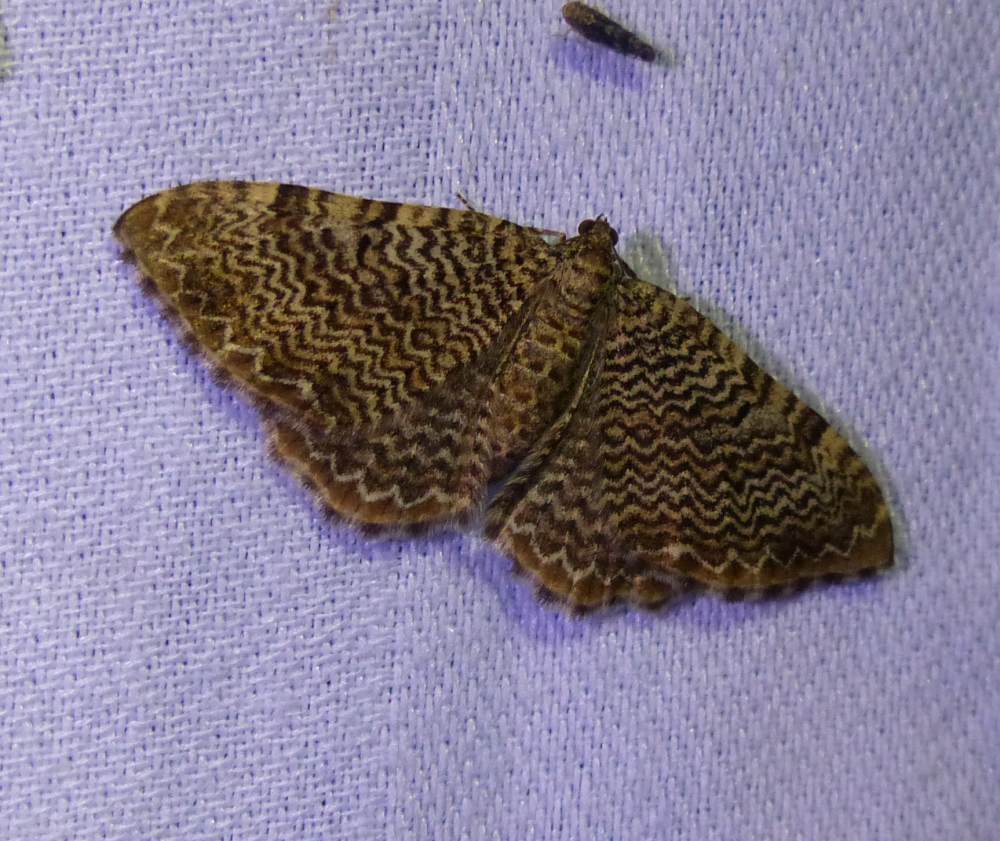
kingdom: Animalia
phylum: Arthropoda
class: Insecta
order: Lepidoptera
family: Geometridae
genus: Rheumaptera
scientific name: Rheumaptera prunivorata
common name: Cherry scallop shell moth
